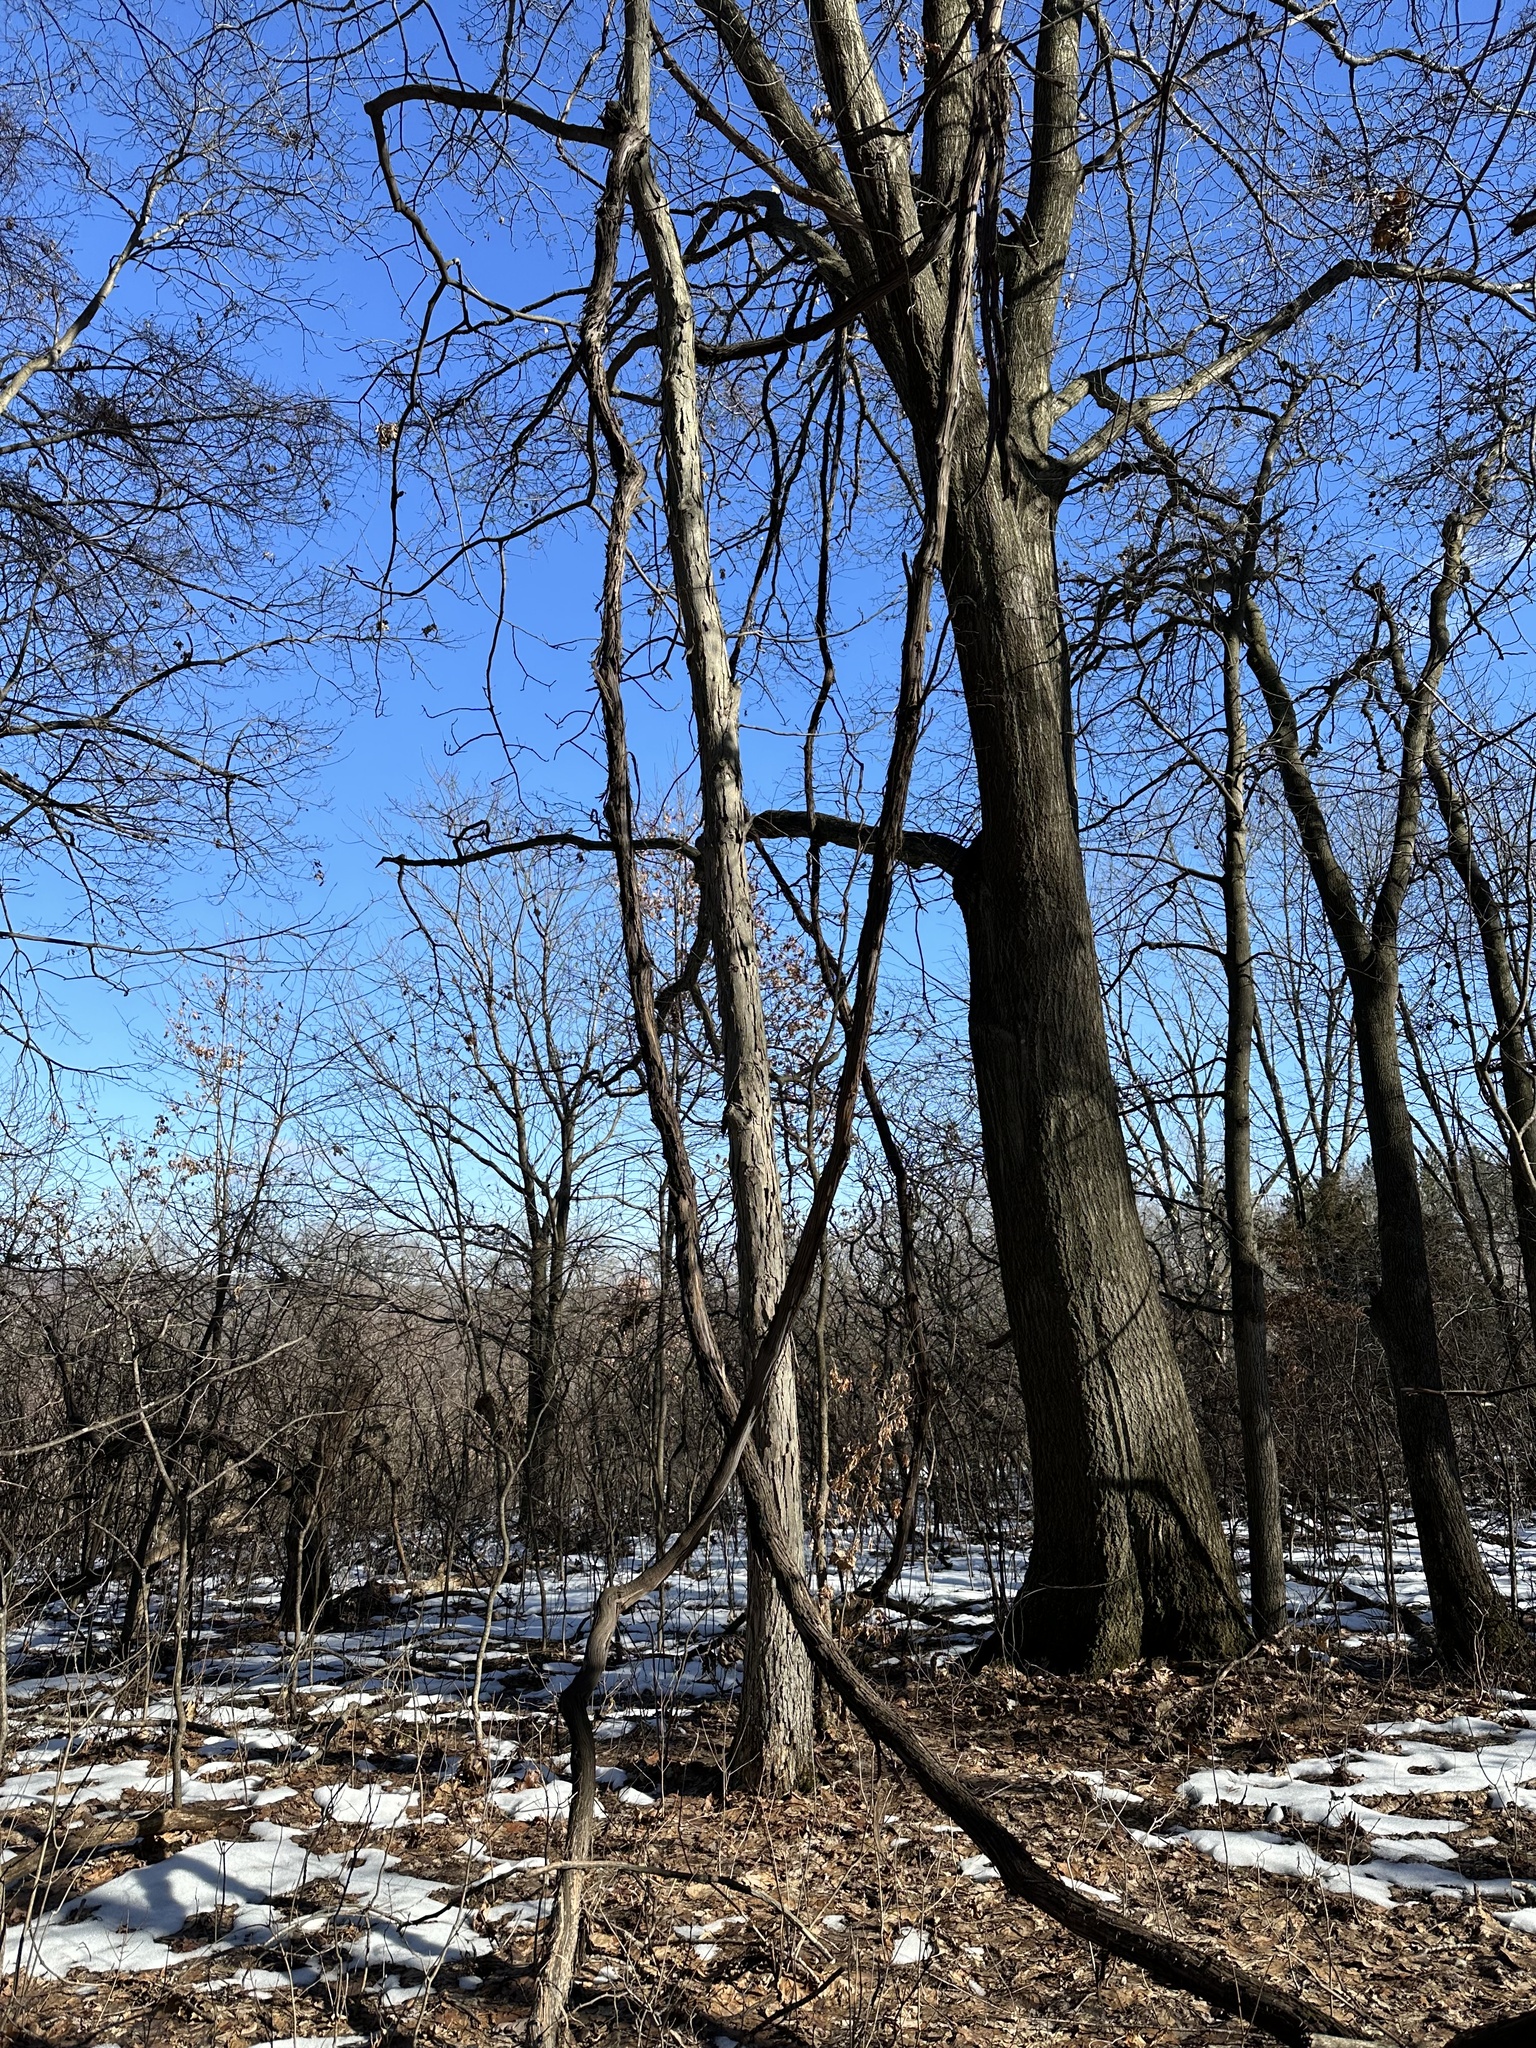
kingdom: Plantae
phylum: Tracheophyta
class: Magnoliopsida
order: Vitales
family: Vitaceae
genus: Vitis
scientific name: Vitis riparia
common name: Frost grape
